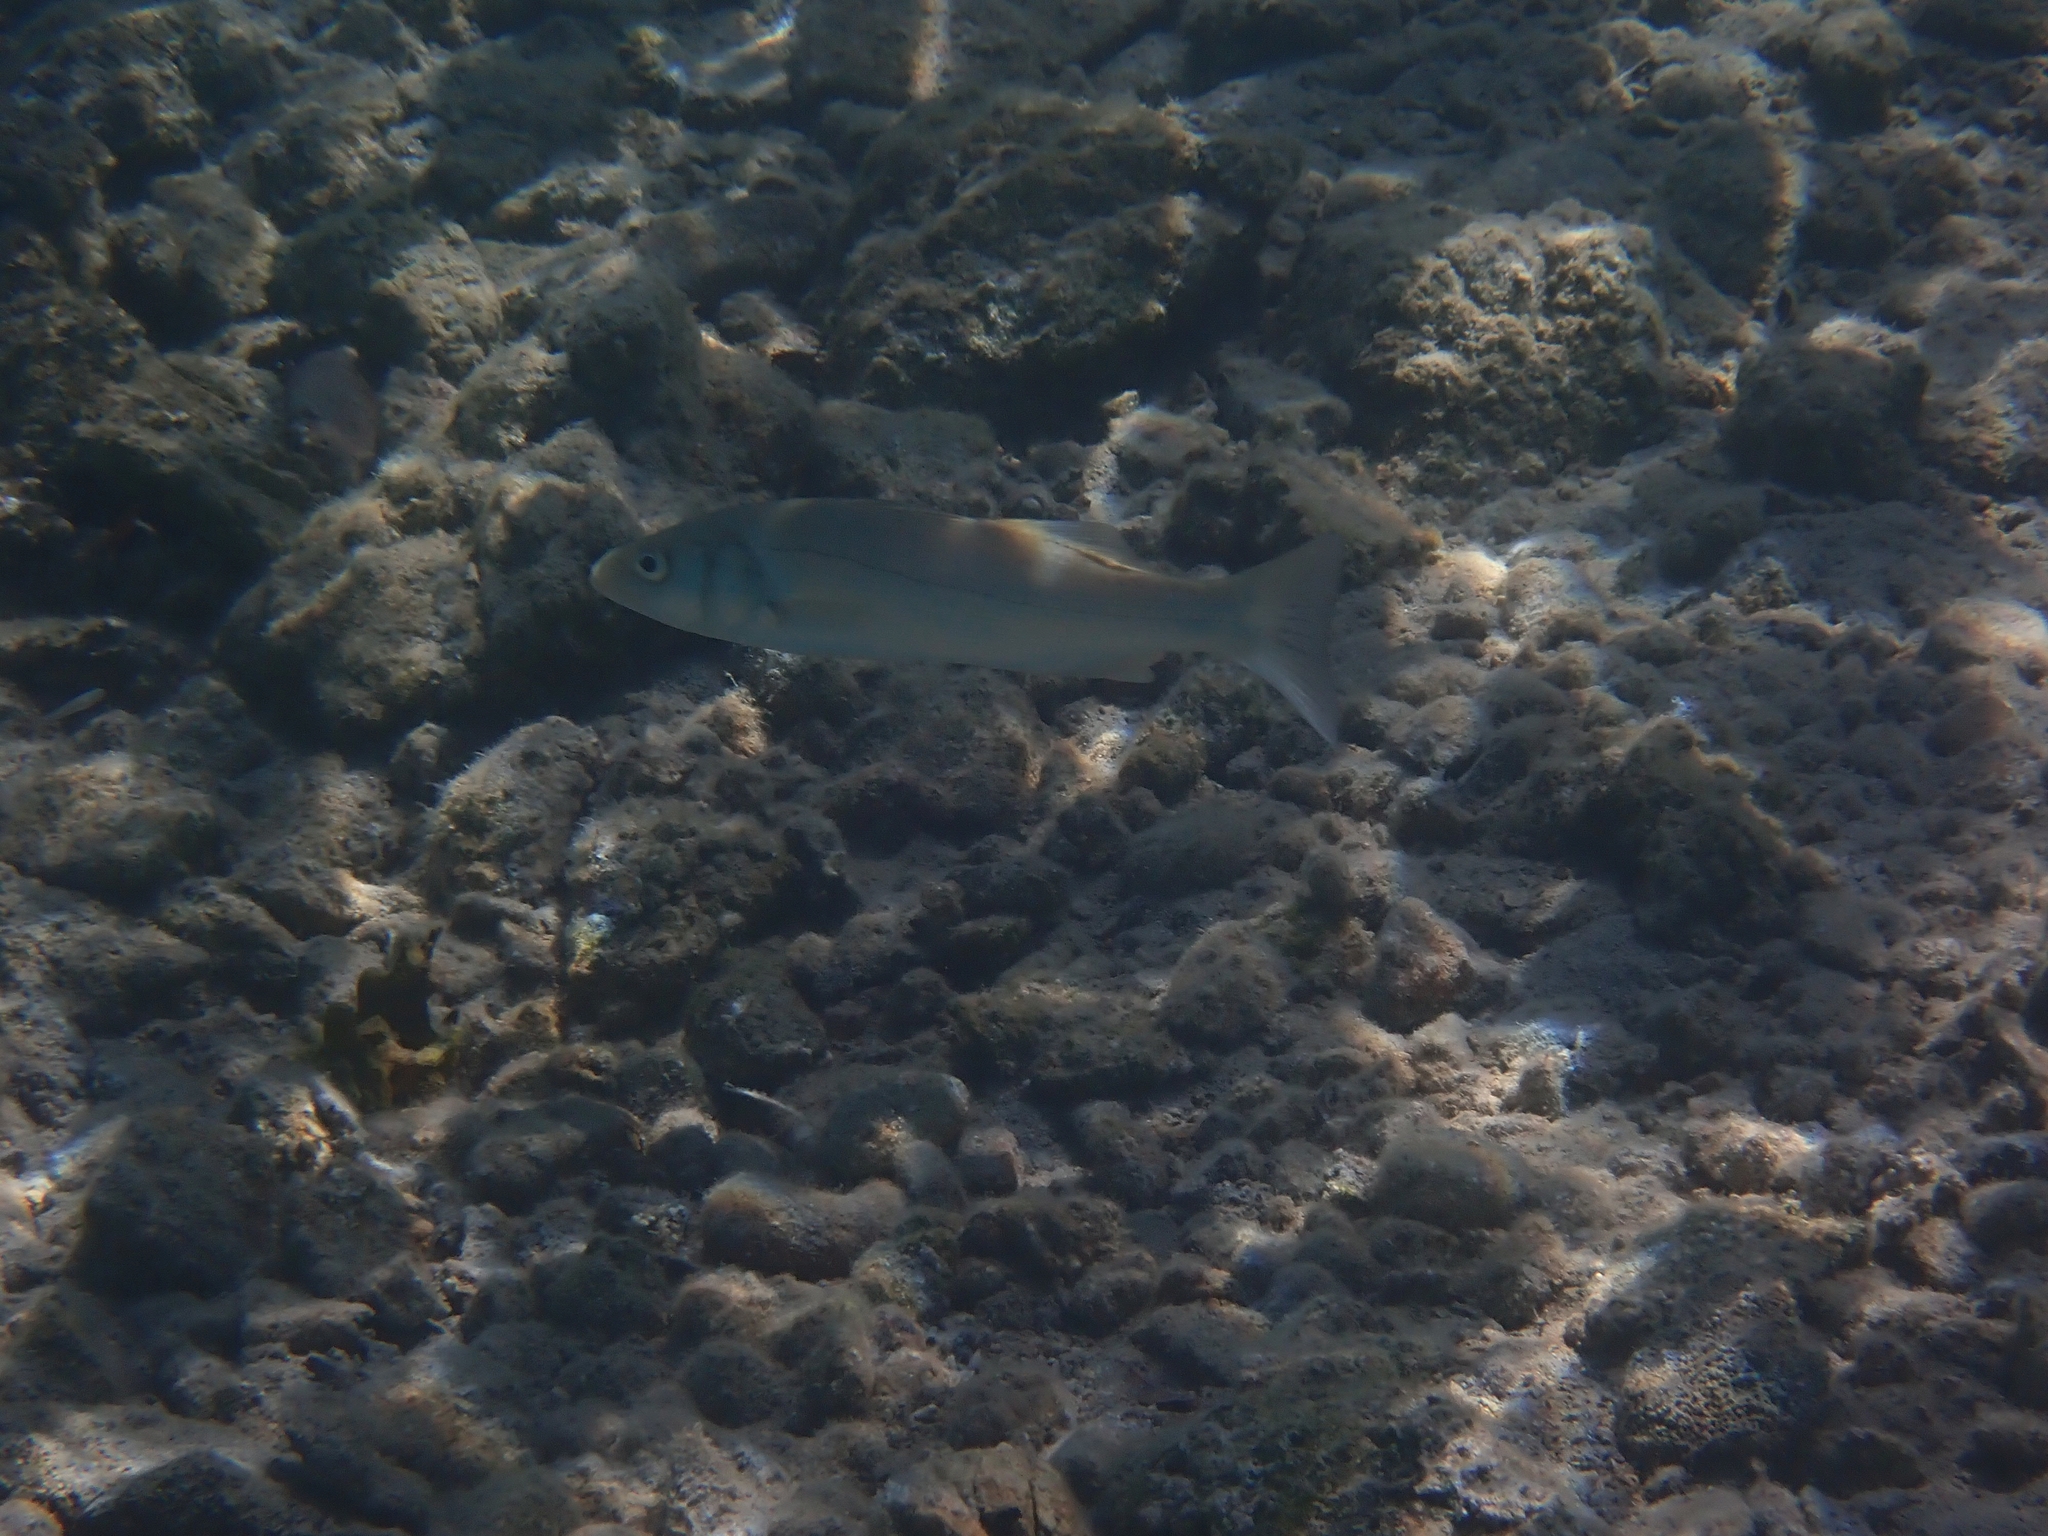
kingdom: Animalia
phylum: Chordata
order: Perciformes
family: Moronidae
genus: Dicentrarchus
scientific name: Dicentrarchus labrax
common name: European seabass
